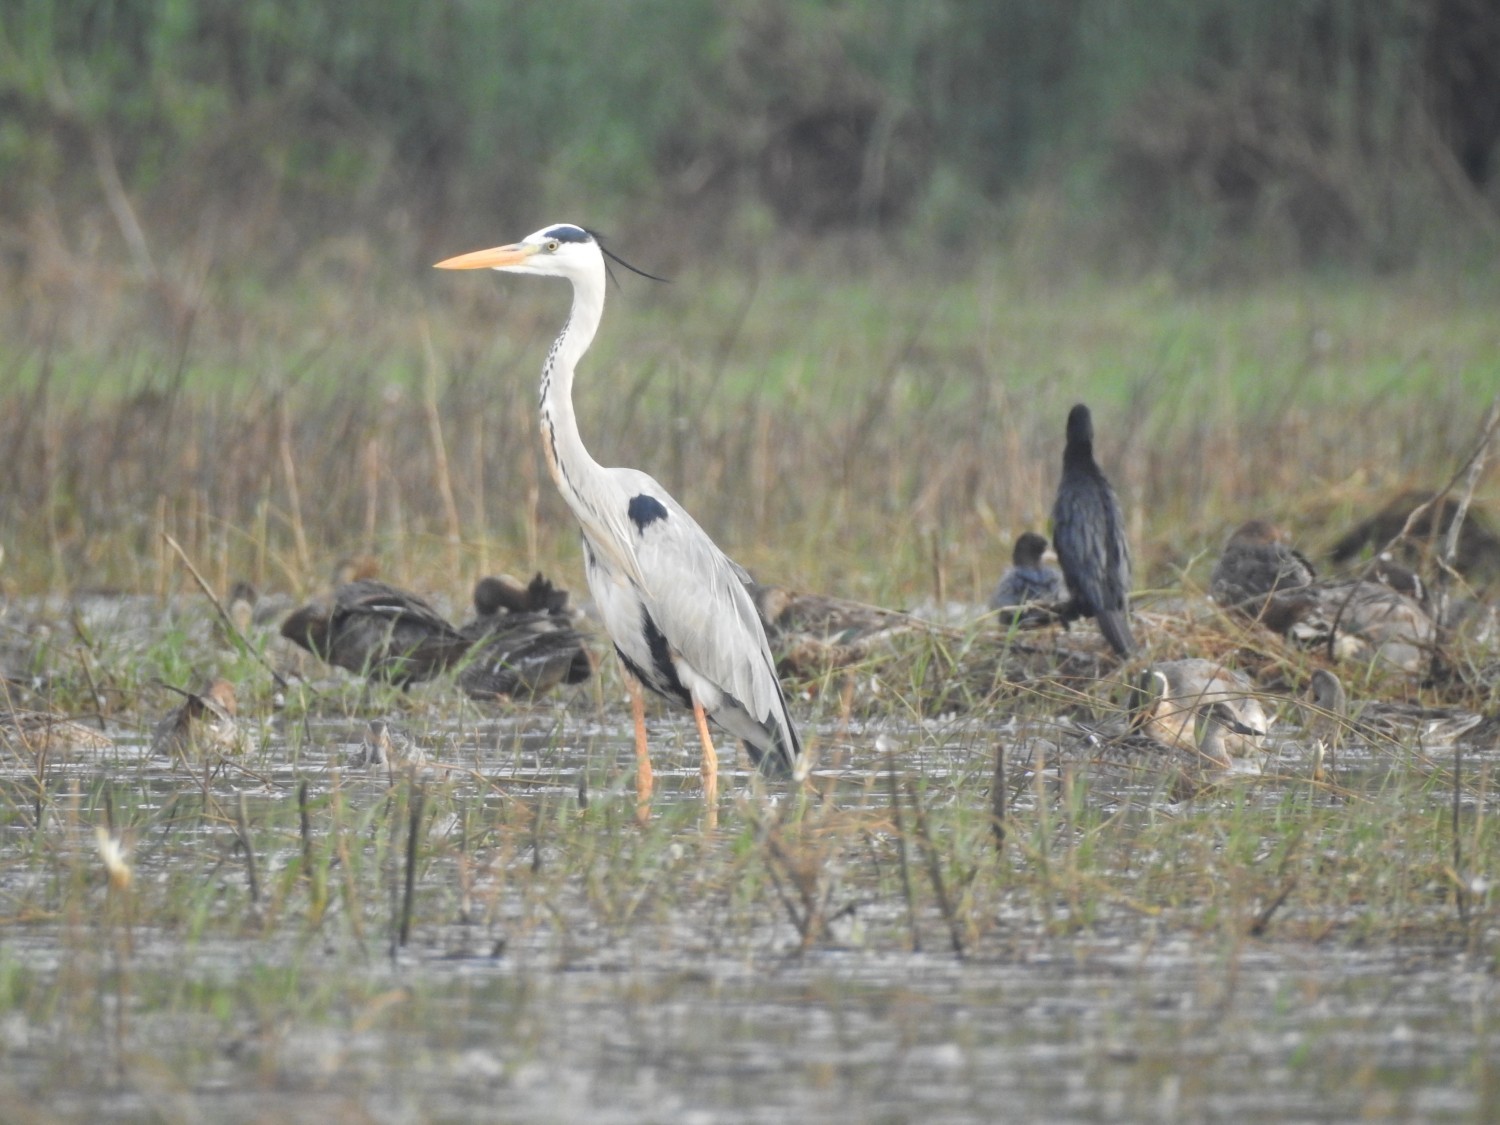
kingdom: Animalia
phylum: Chordata
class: Aves
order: Pelecaniformes
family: Ardeidae
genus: Ardea
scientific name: Ardea cinerea
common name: Grey heron
